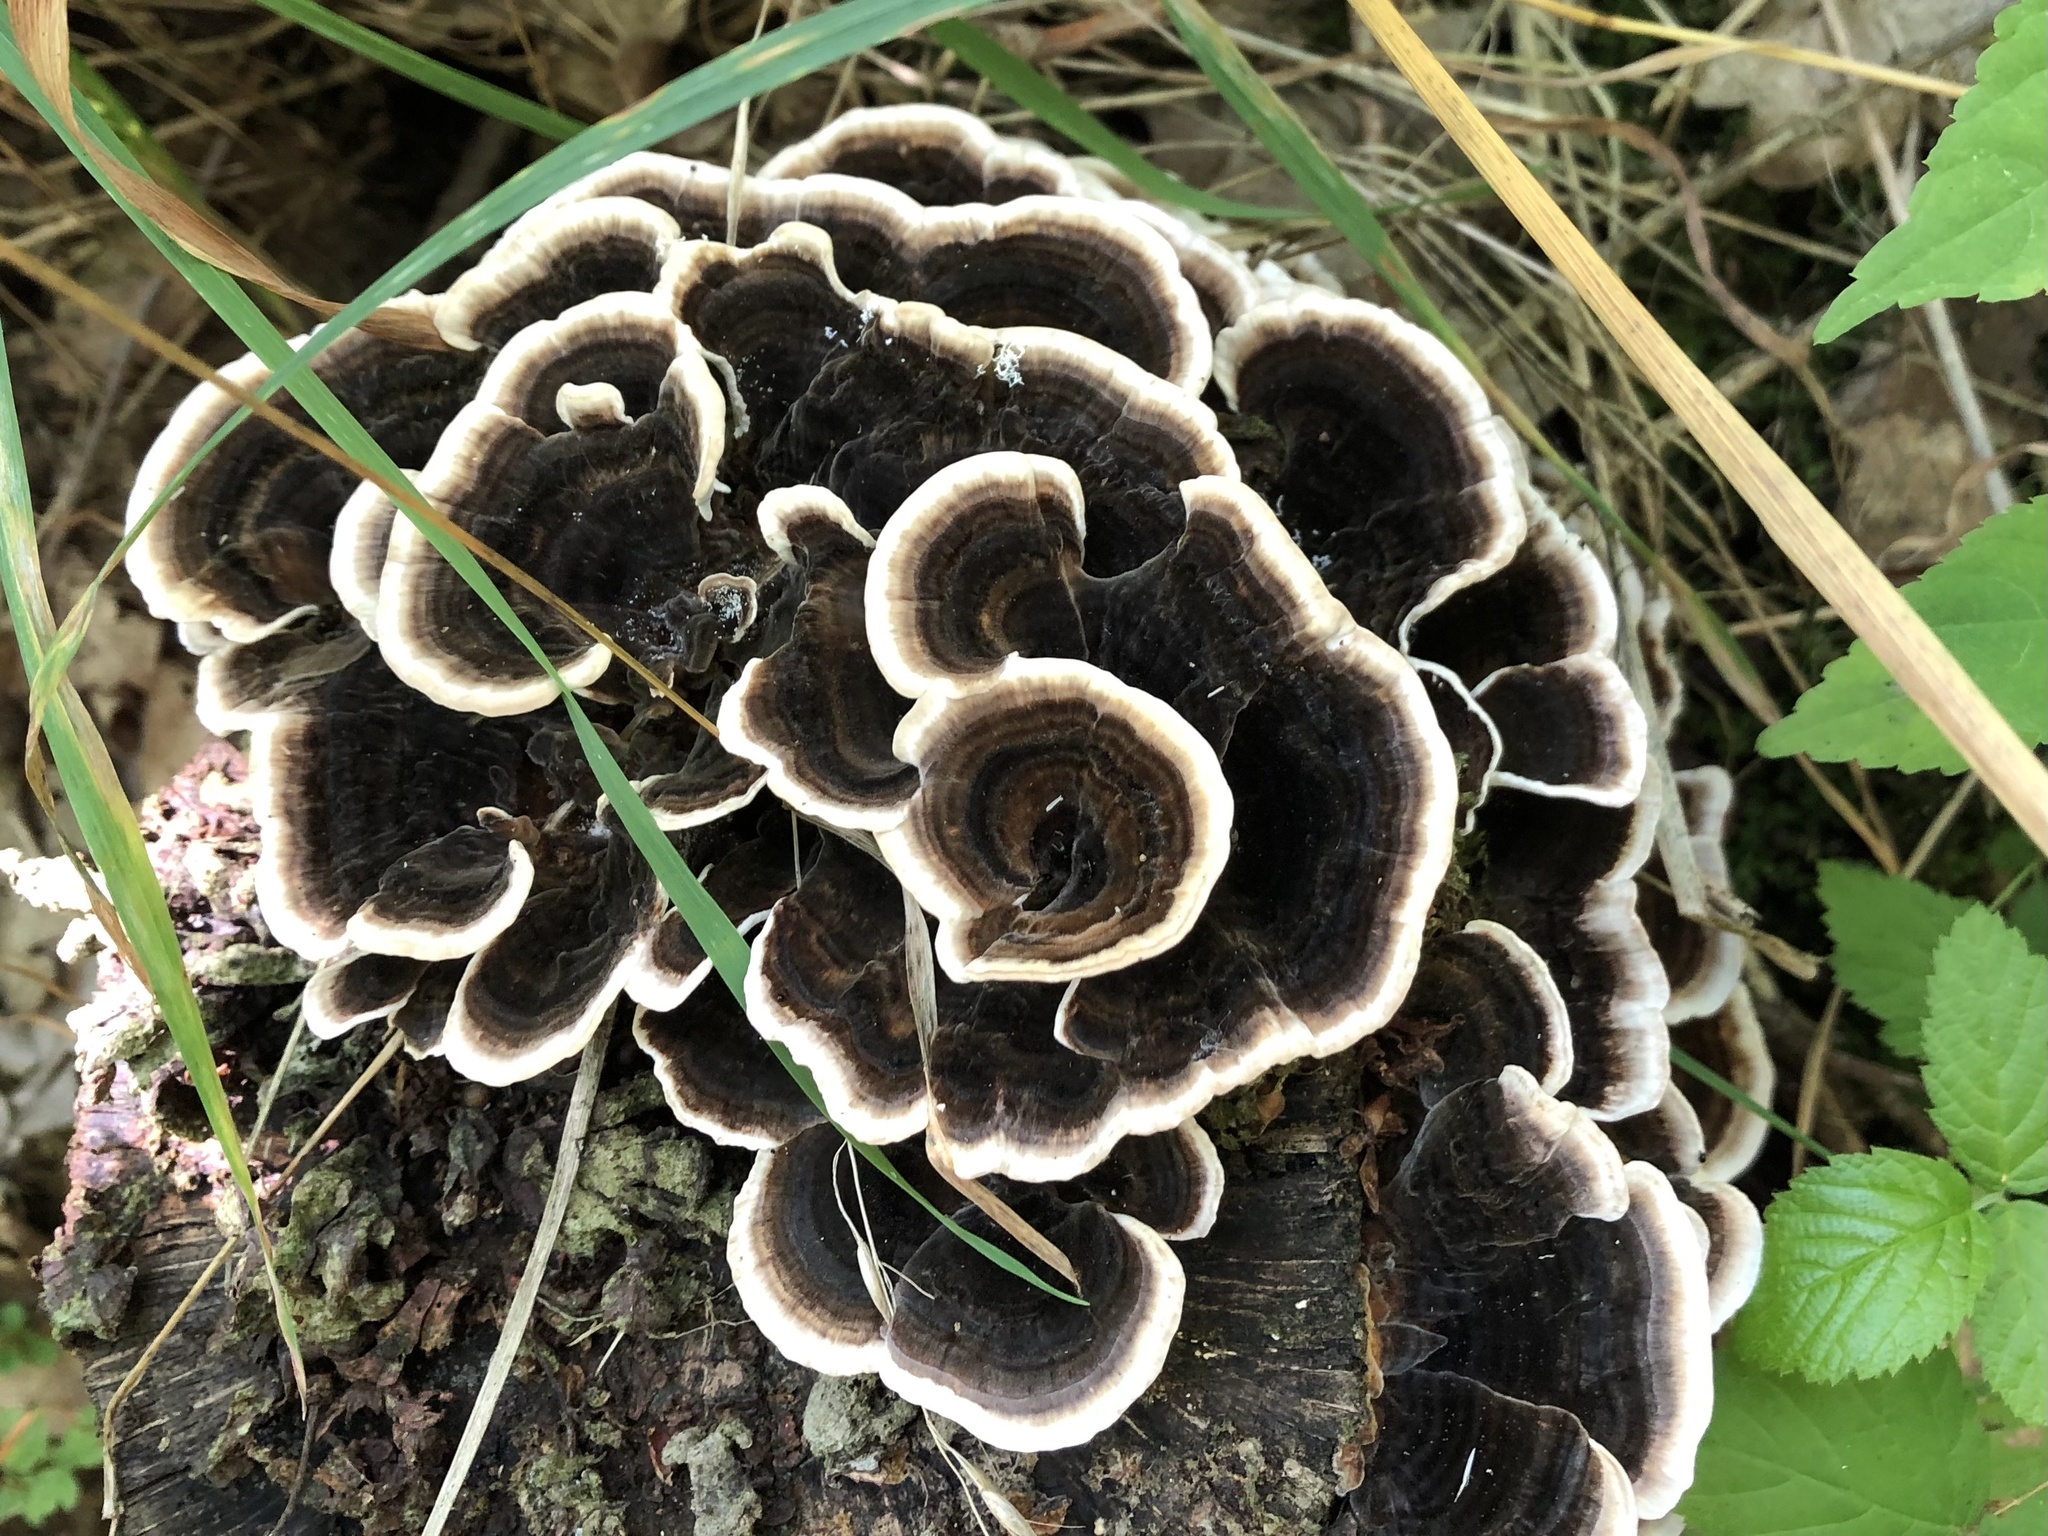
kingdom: Fungi
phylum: Basidiomycota
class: Agaricomycetes
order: Polyporales
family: Polyporaceae
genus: Trametes
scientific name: Trametes versicolor
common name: Turkeytail
